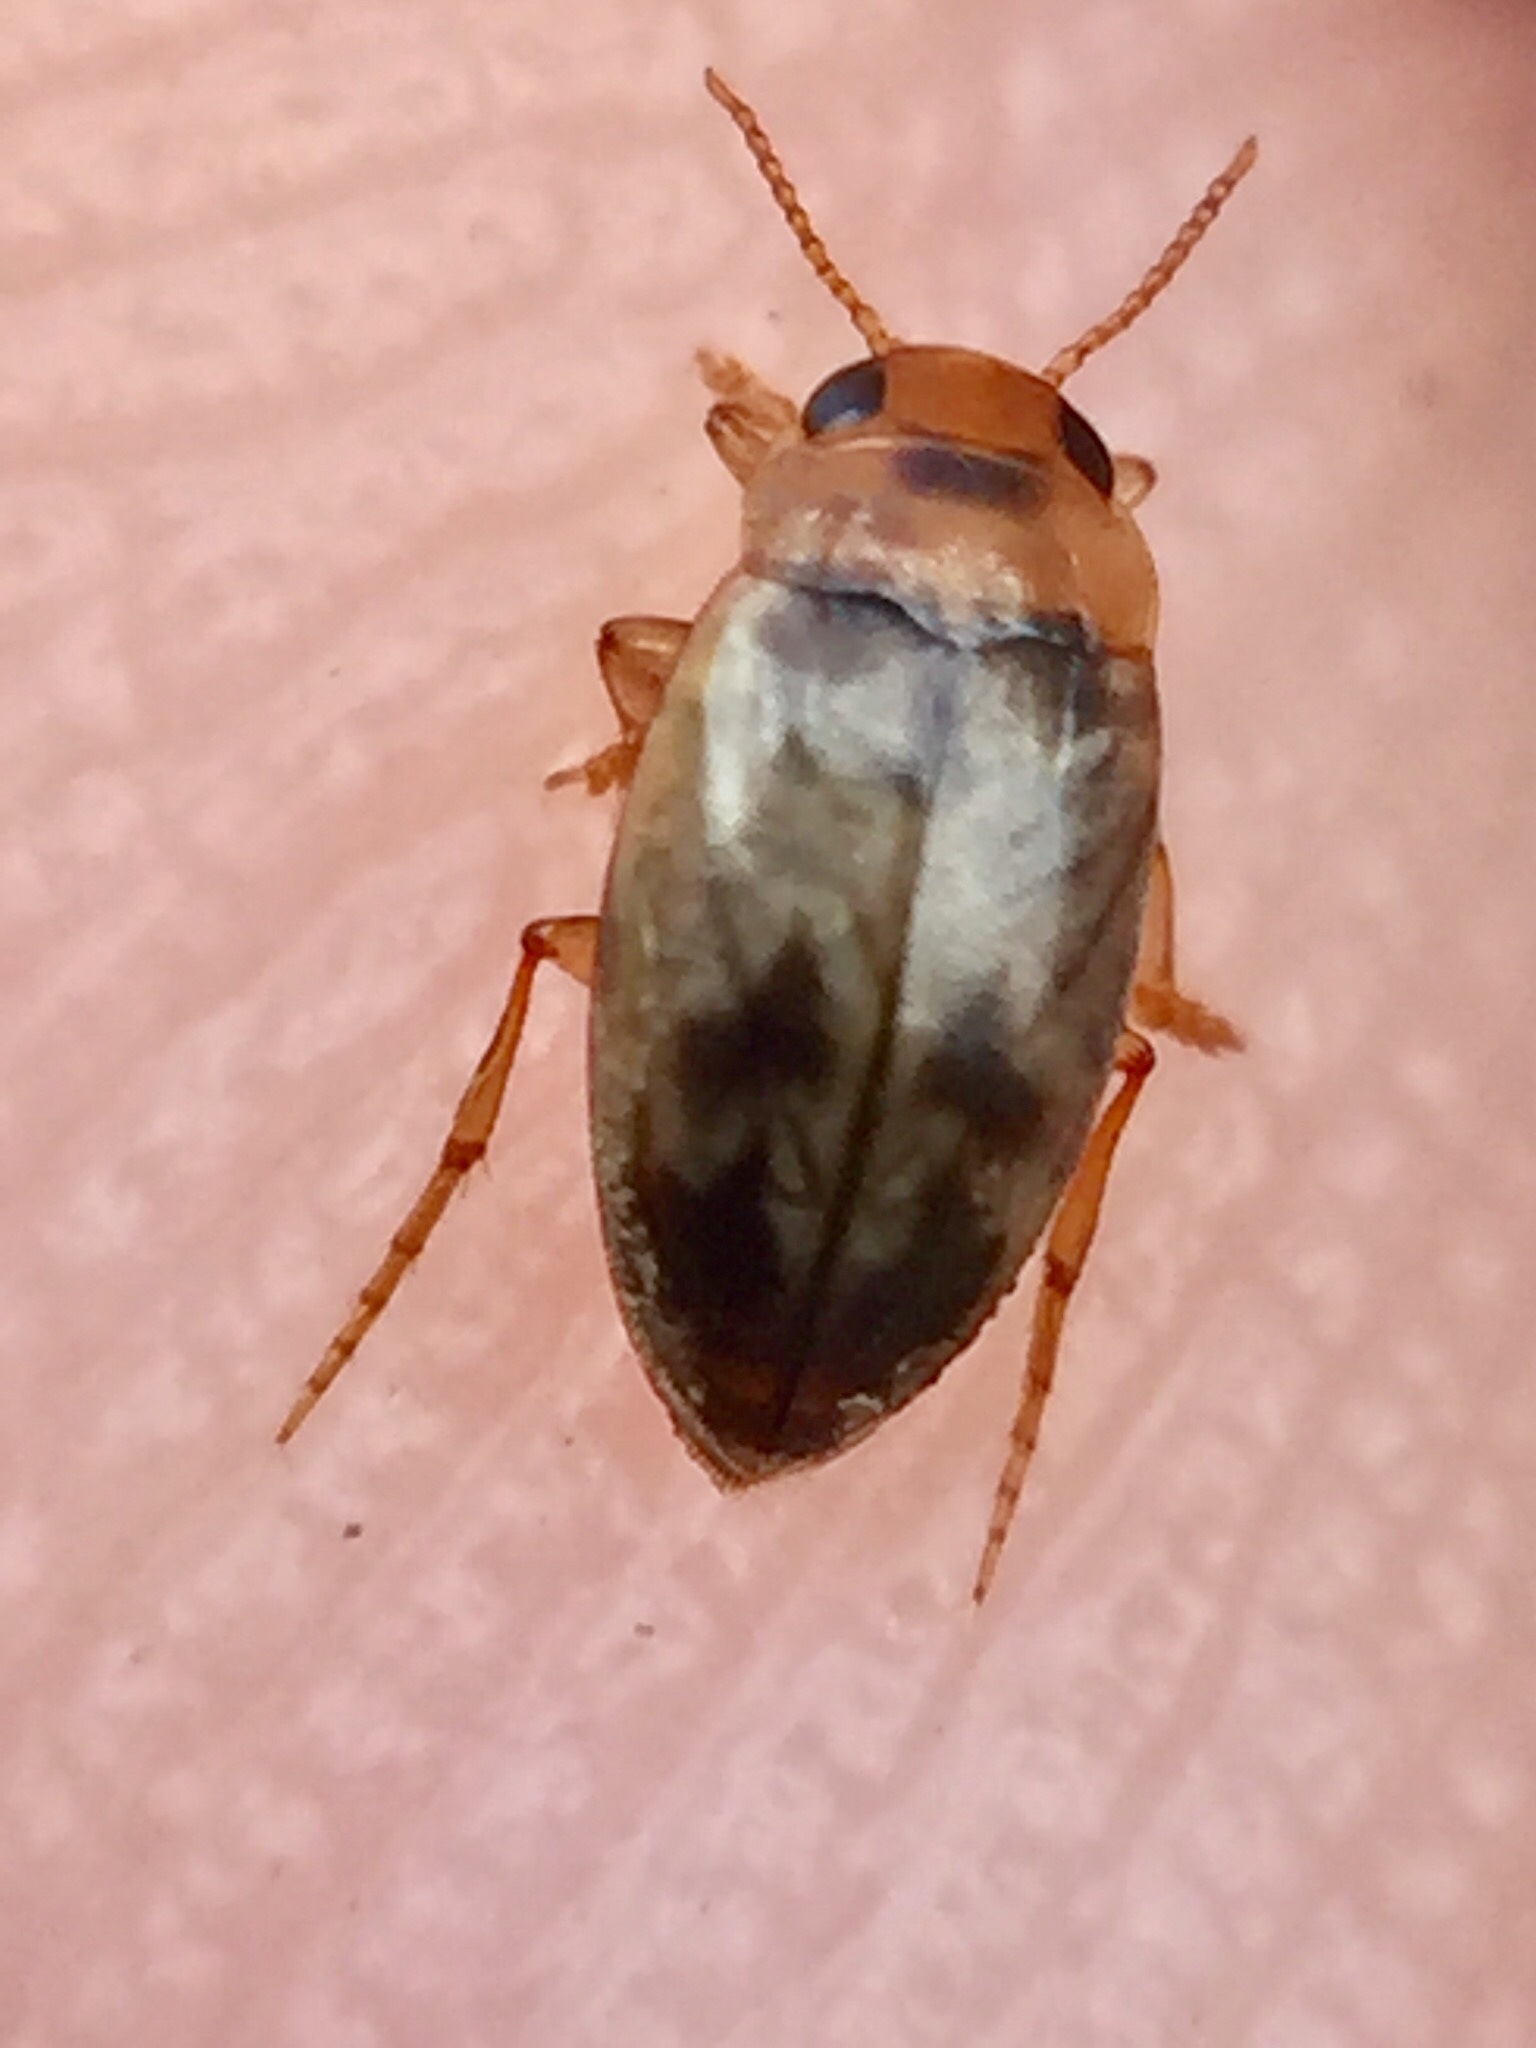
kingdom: Animalia
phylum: Arthropoda
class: Insecta
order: Coleoptera
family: Dytiscidae
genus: Allodessus
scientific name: Allodessus bistrigatus
